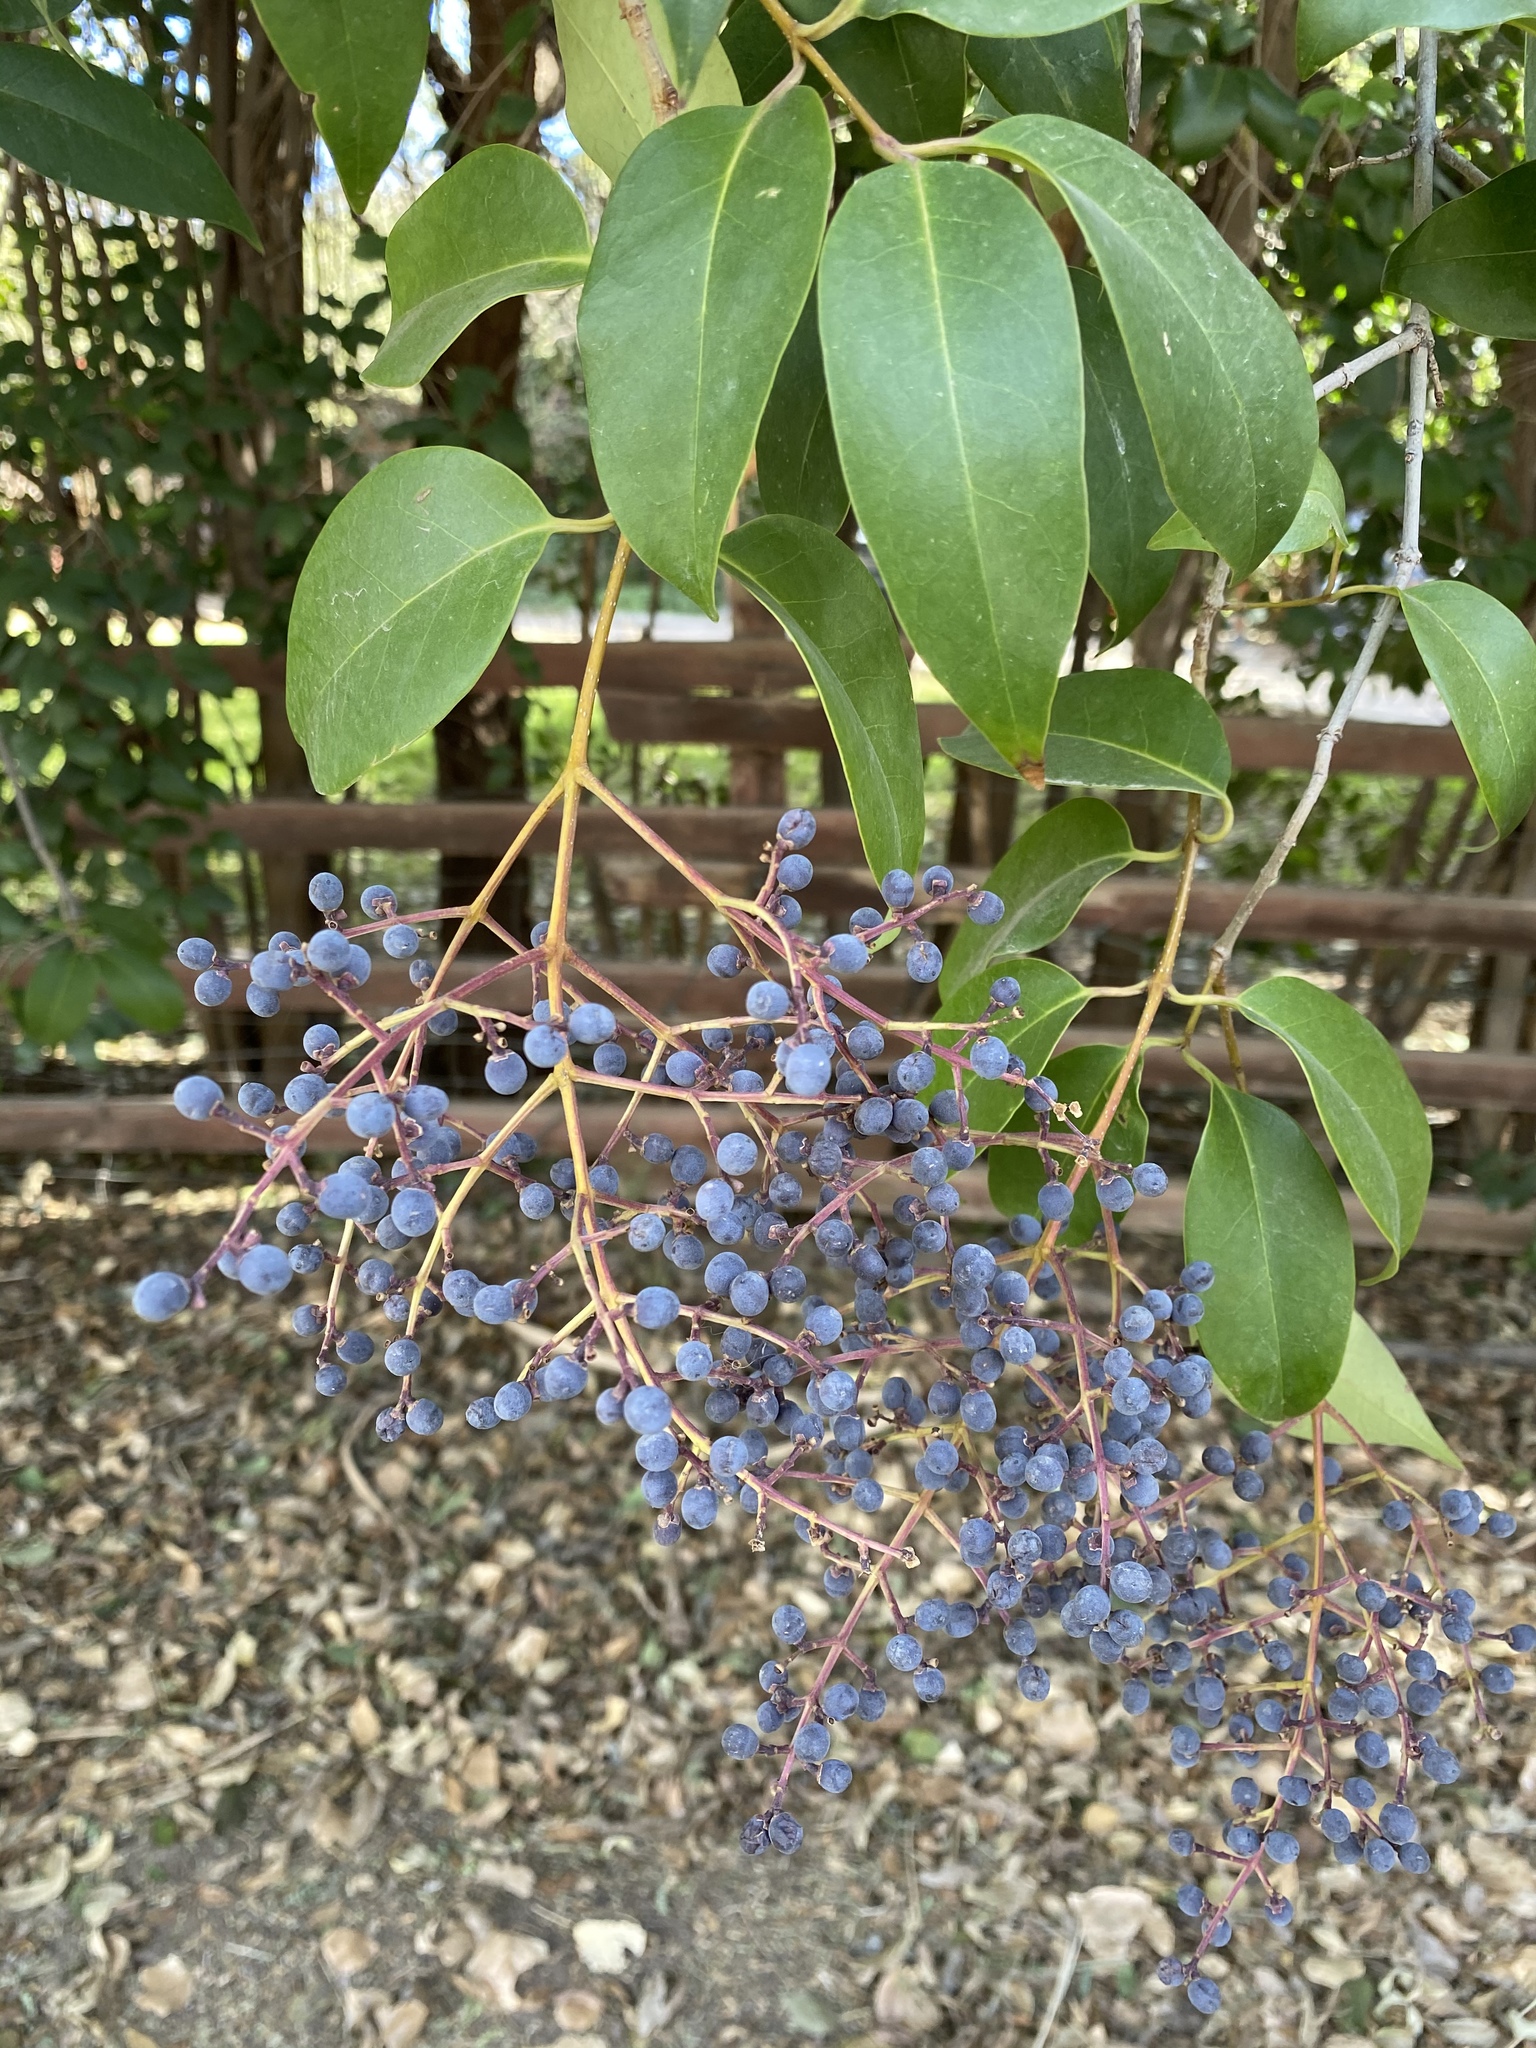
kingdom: Plantae
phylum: Tracheophyta
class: Magnoliopsida
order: Lamiales
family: Oleaceae
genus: Ligustrum
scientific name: Ligustrum lucidum
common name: Glossy privet
